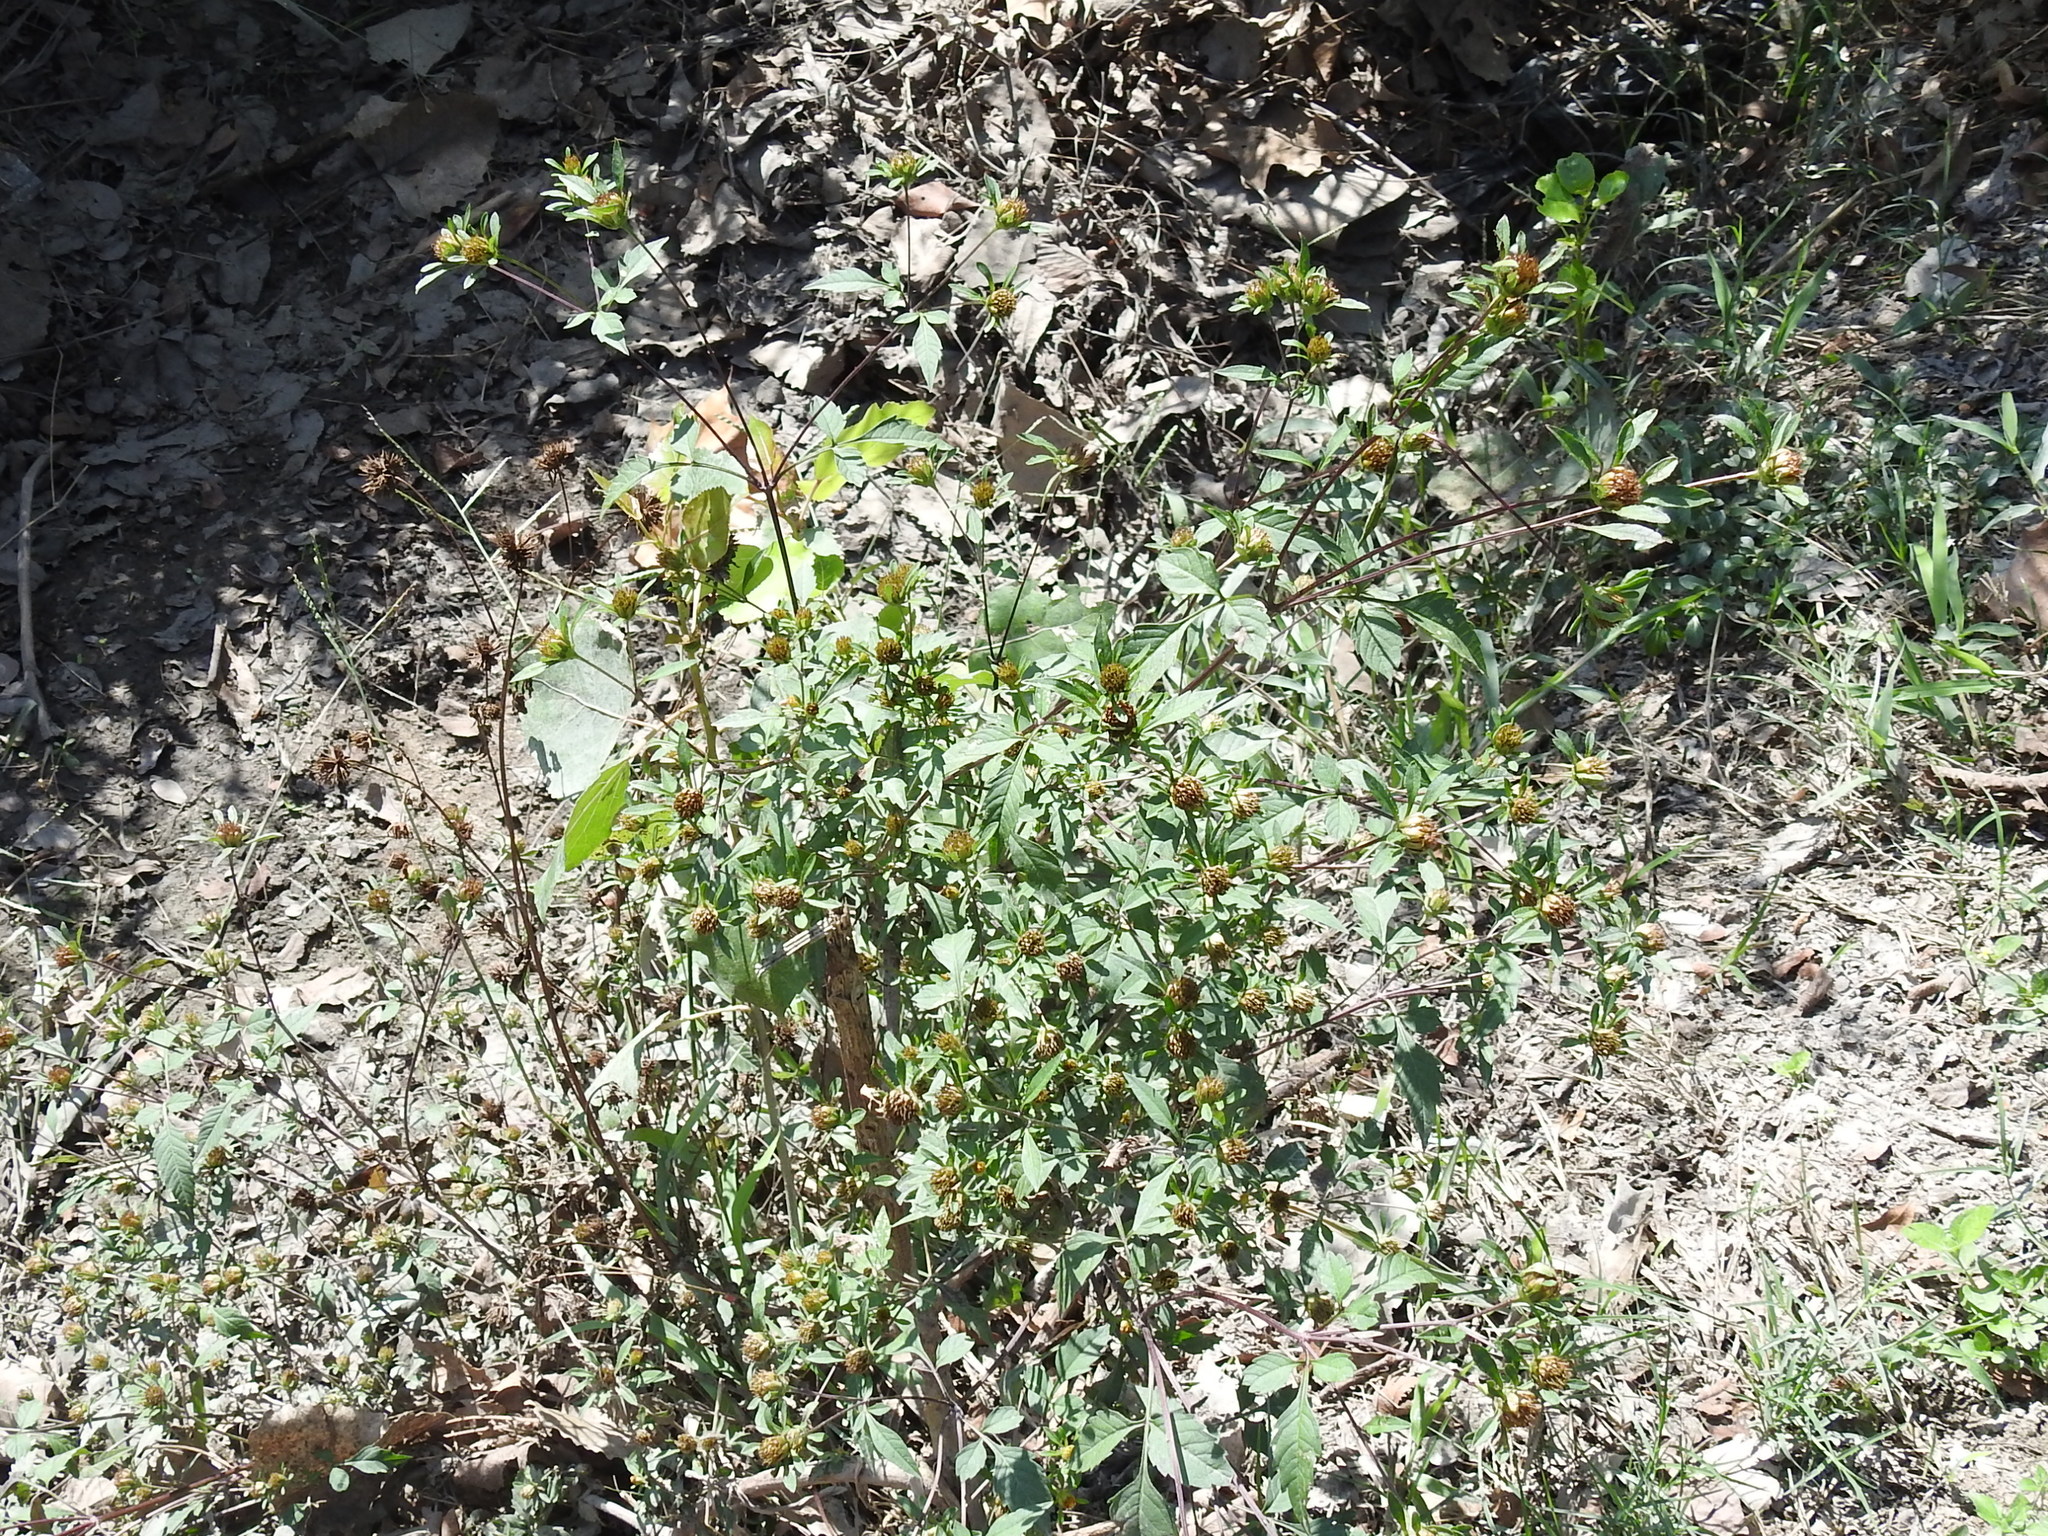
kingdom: Plantae
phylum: Tracheophyta
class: Magnoliopsida
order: Asterales
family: Asteraceae
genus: Bidens
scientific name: Bidens frondosa
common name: Beggarticks
